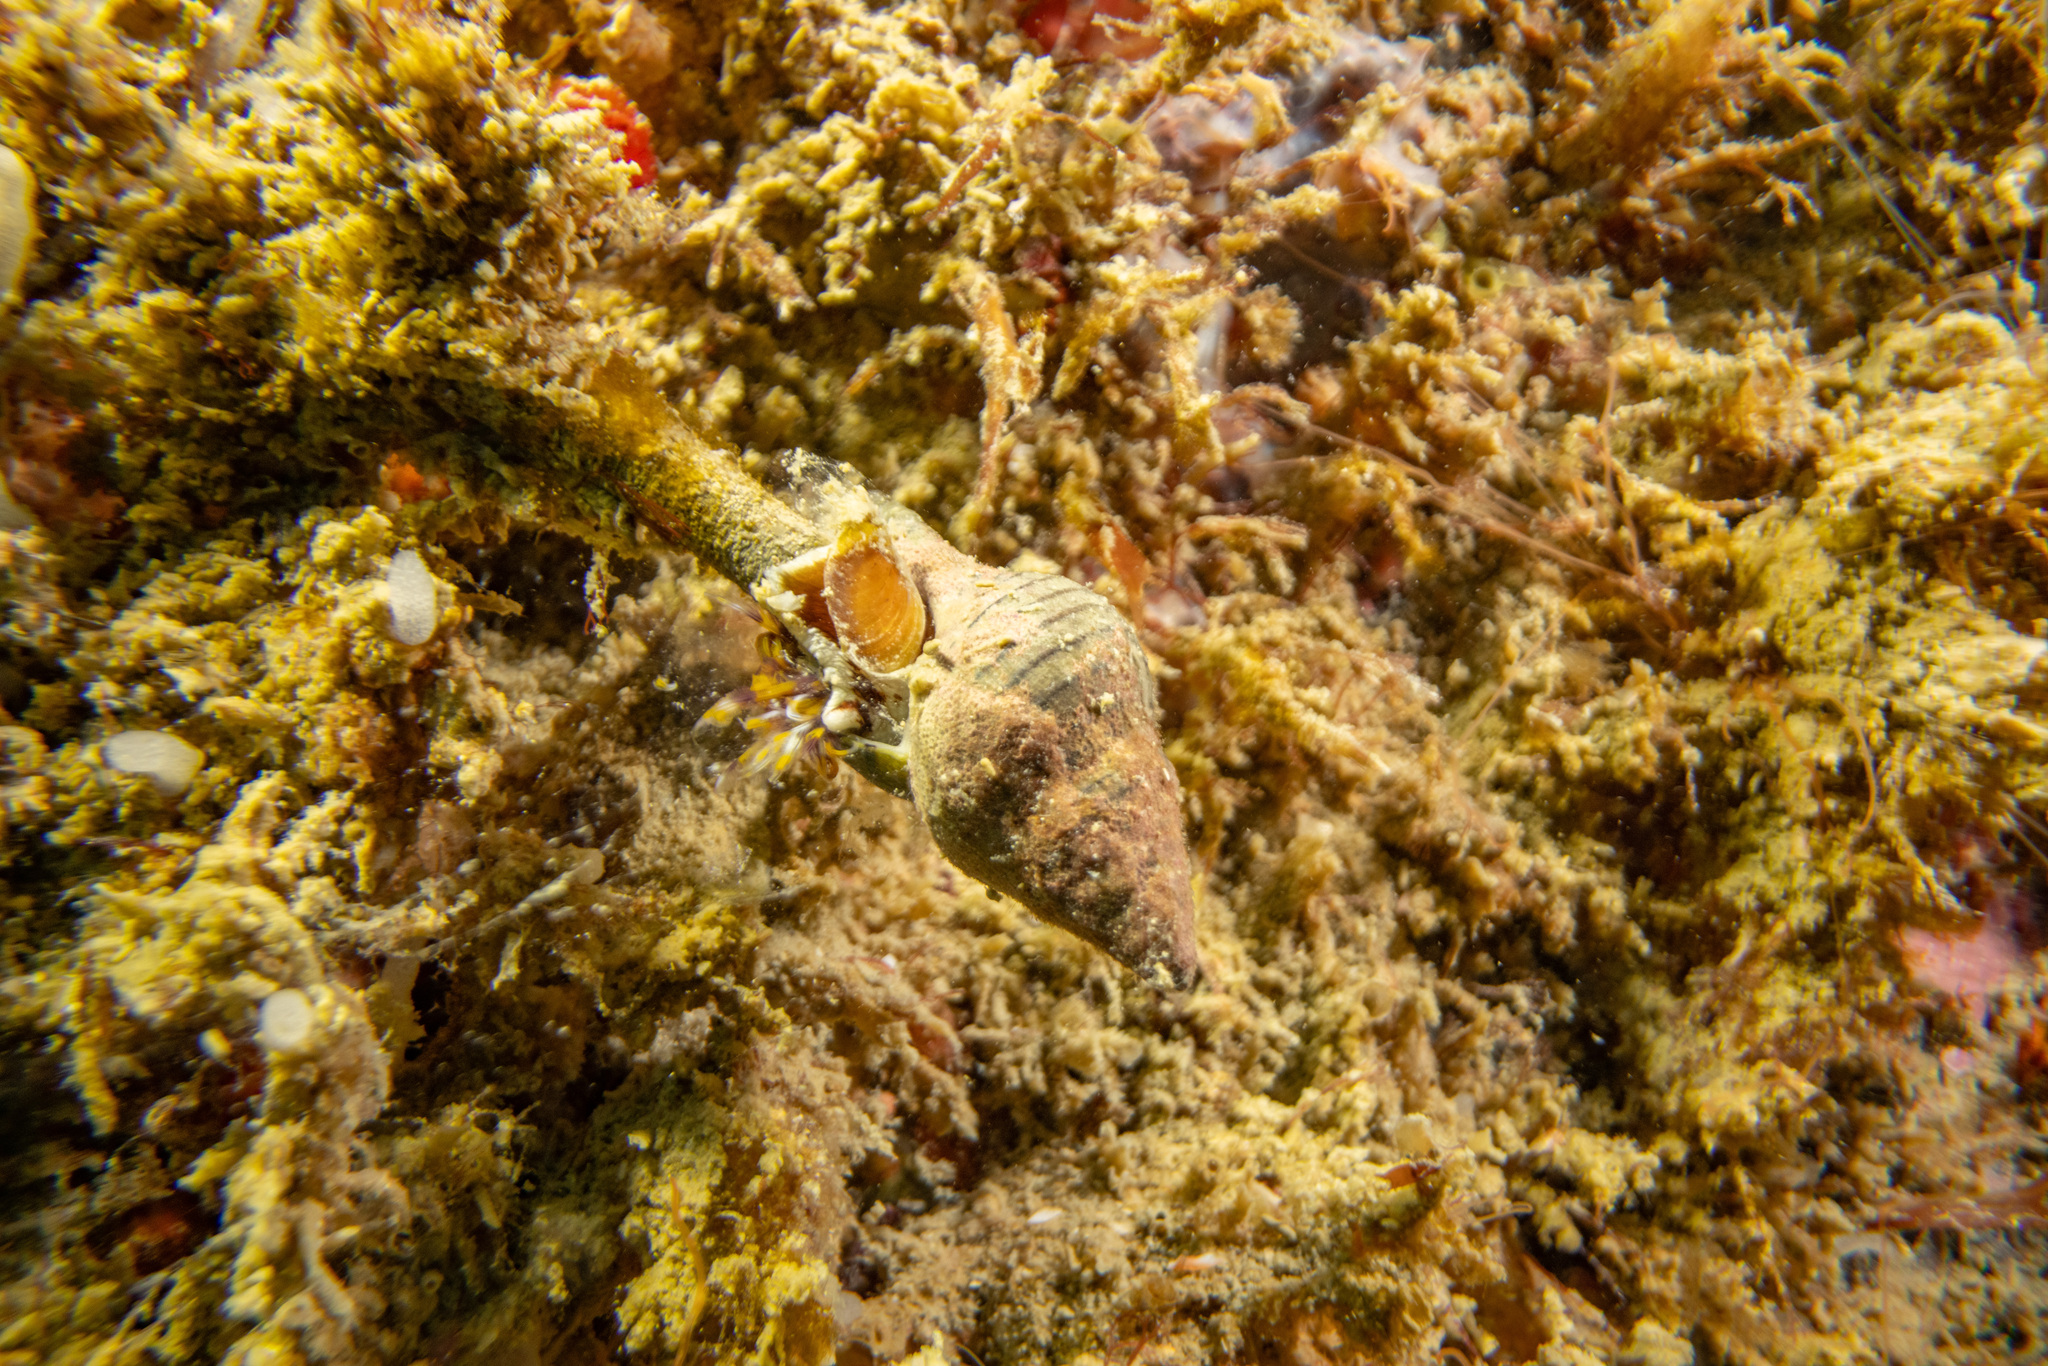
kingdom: Animalia
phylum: Mollusca
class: Gastropoda
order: Neogastropoda
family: Tudiclidae
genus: Buccinulum
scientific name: Buccinulum linea
